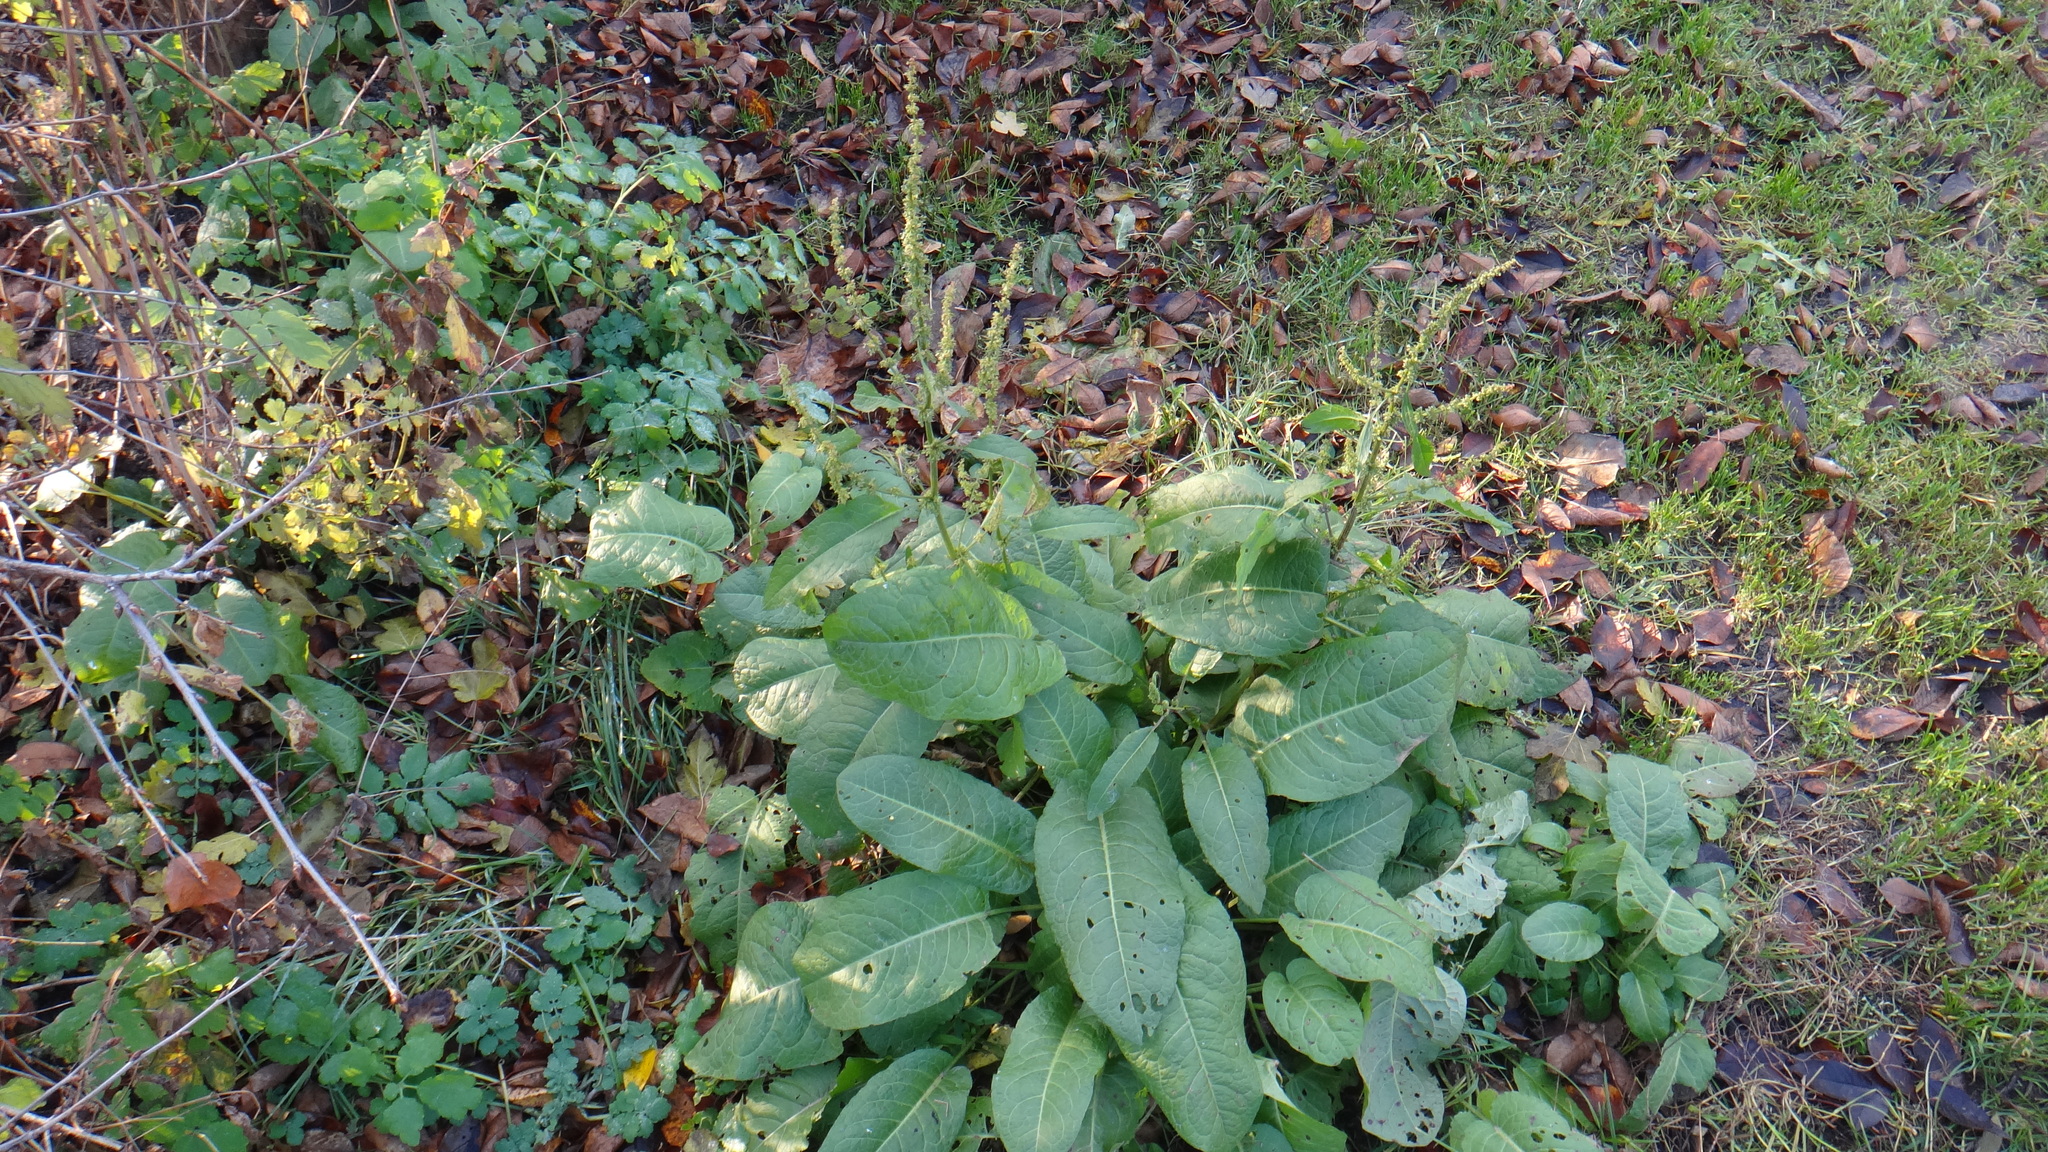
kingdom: Plantae
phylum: Tracheophyta
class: Magnoliopsida
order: Caryophyllales
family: Polygonaceae
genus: Rumex
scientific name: Rumex obtusifolius
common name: Bitter dock
